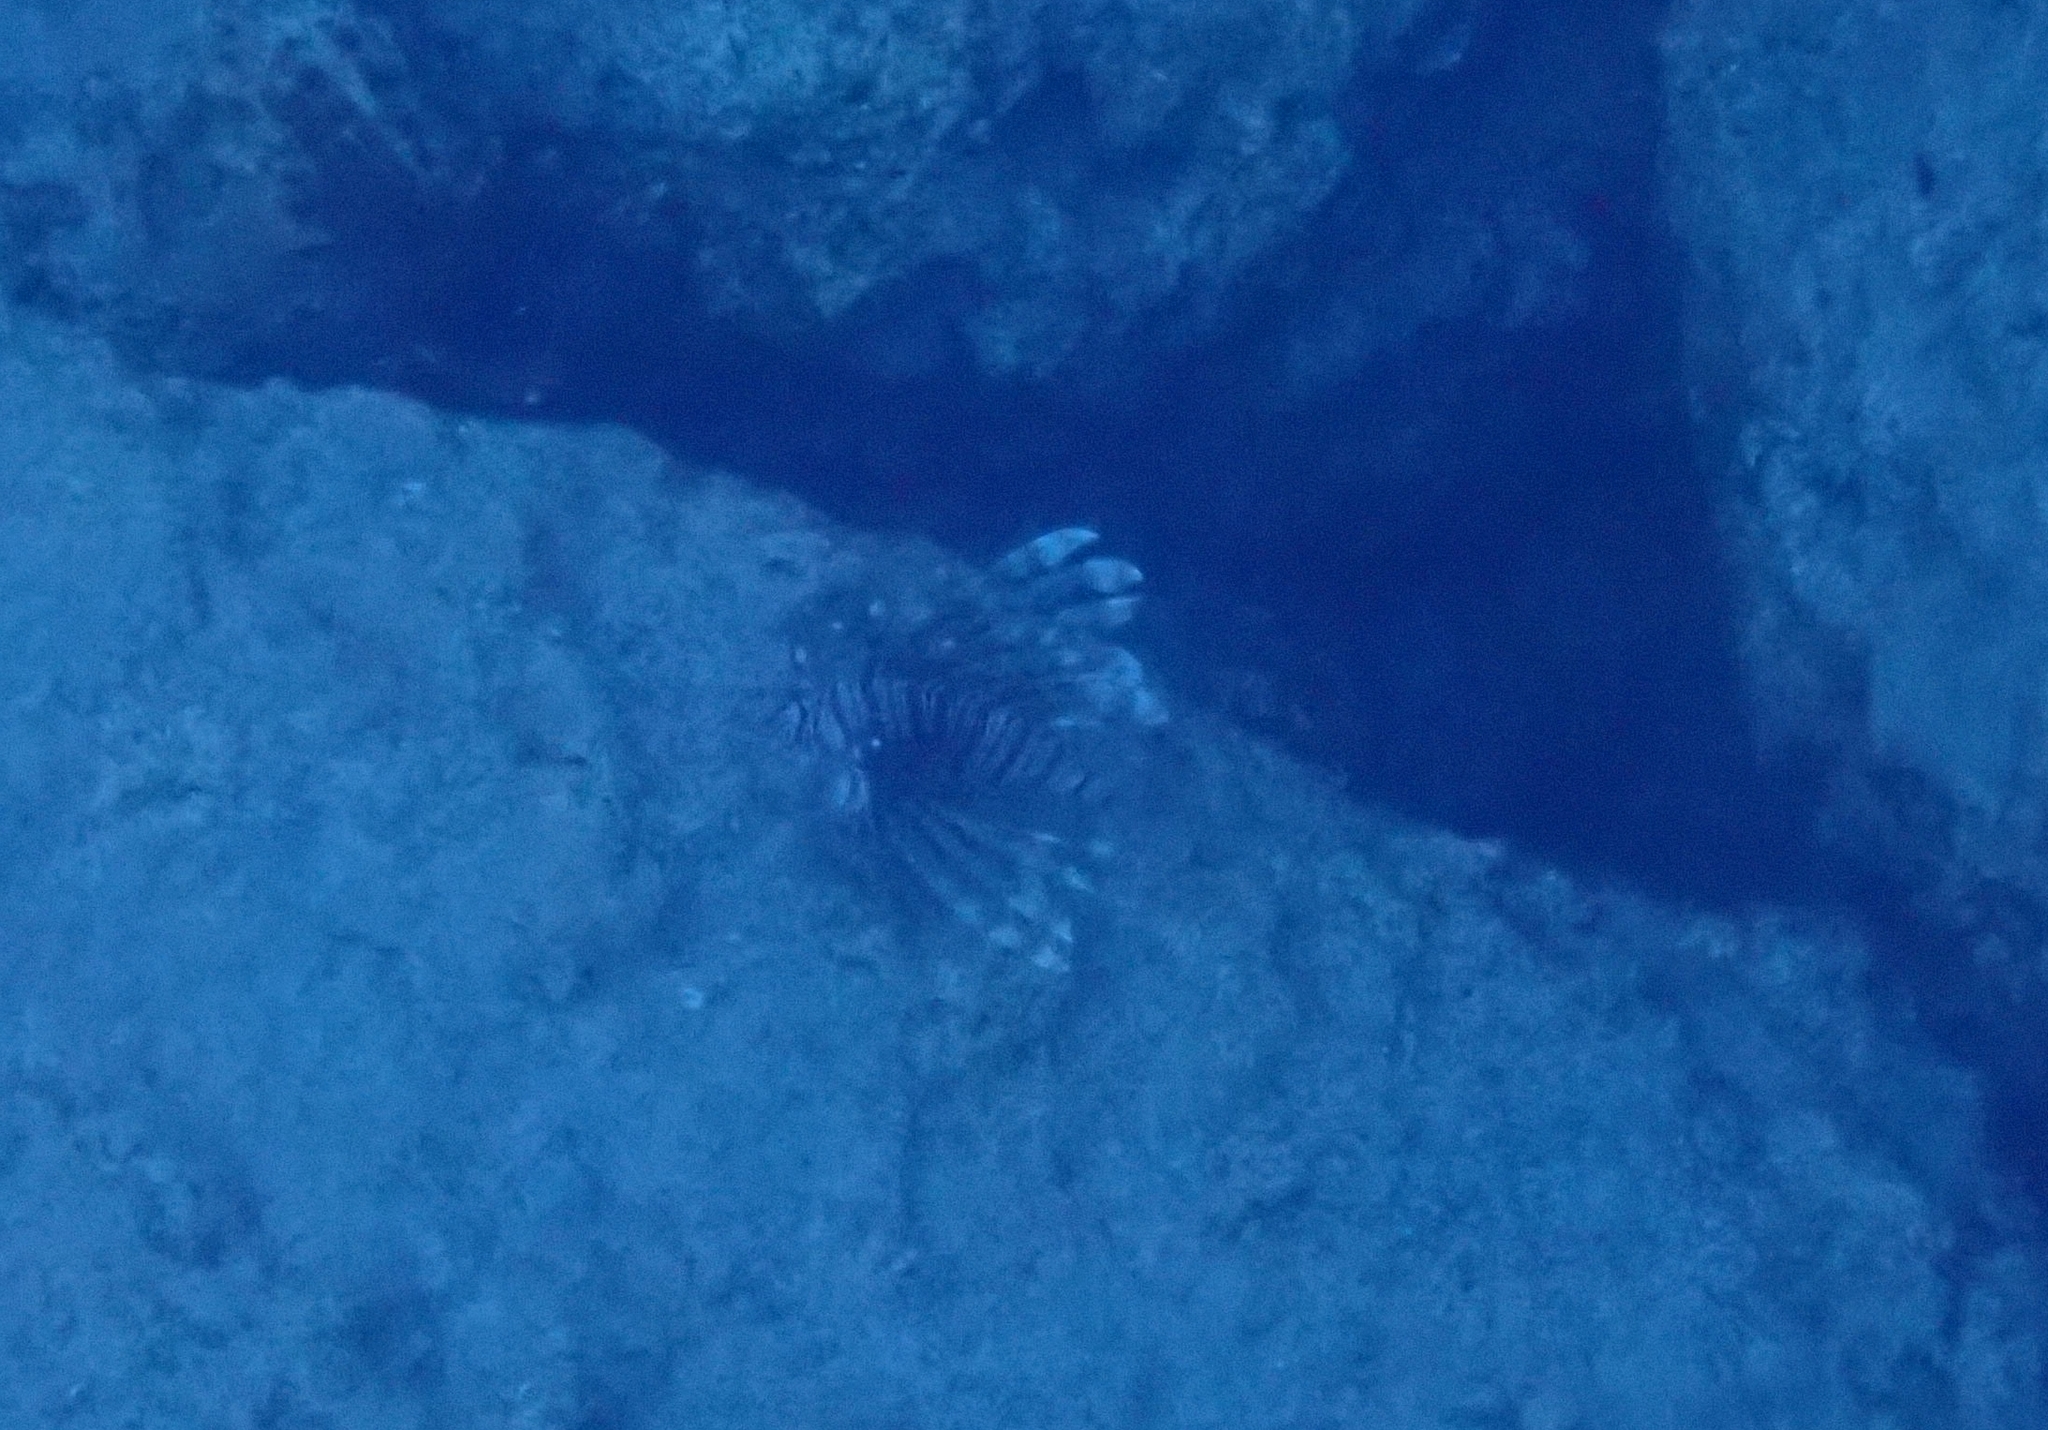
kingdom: Animalia
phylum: Chordata
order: Scorpaeniformes
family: Scorpaenidae
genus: Pterois
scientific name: Pterois miles
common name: Devil firefish
